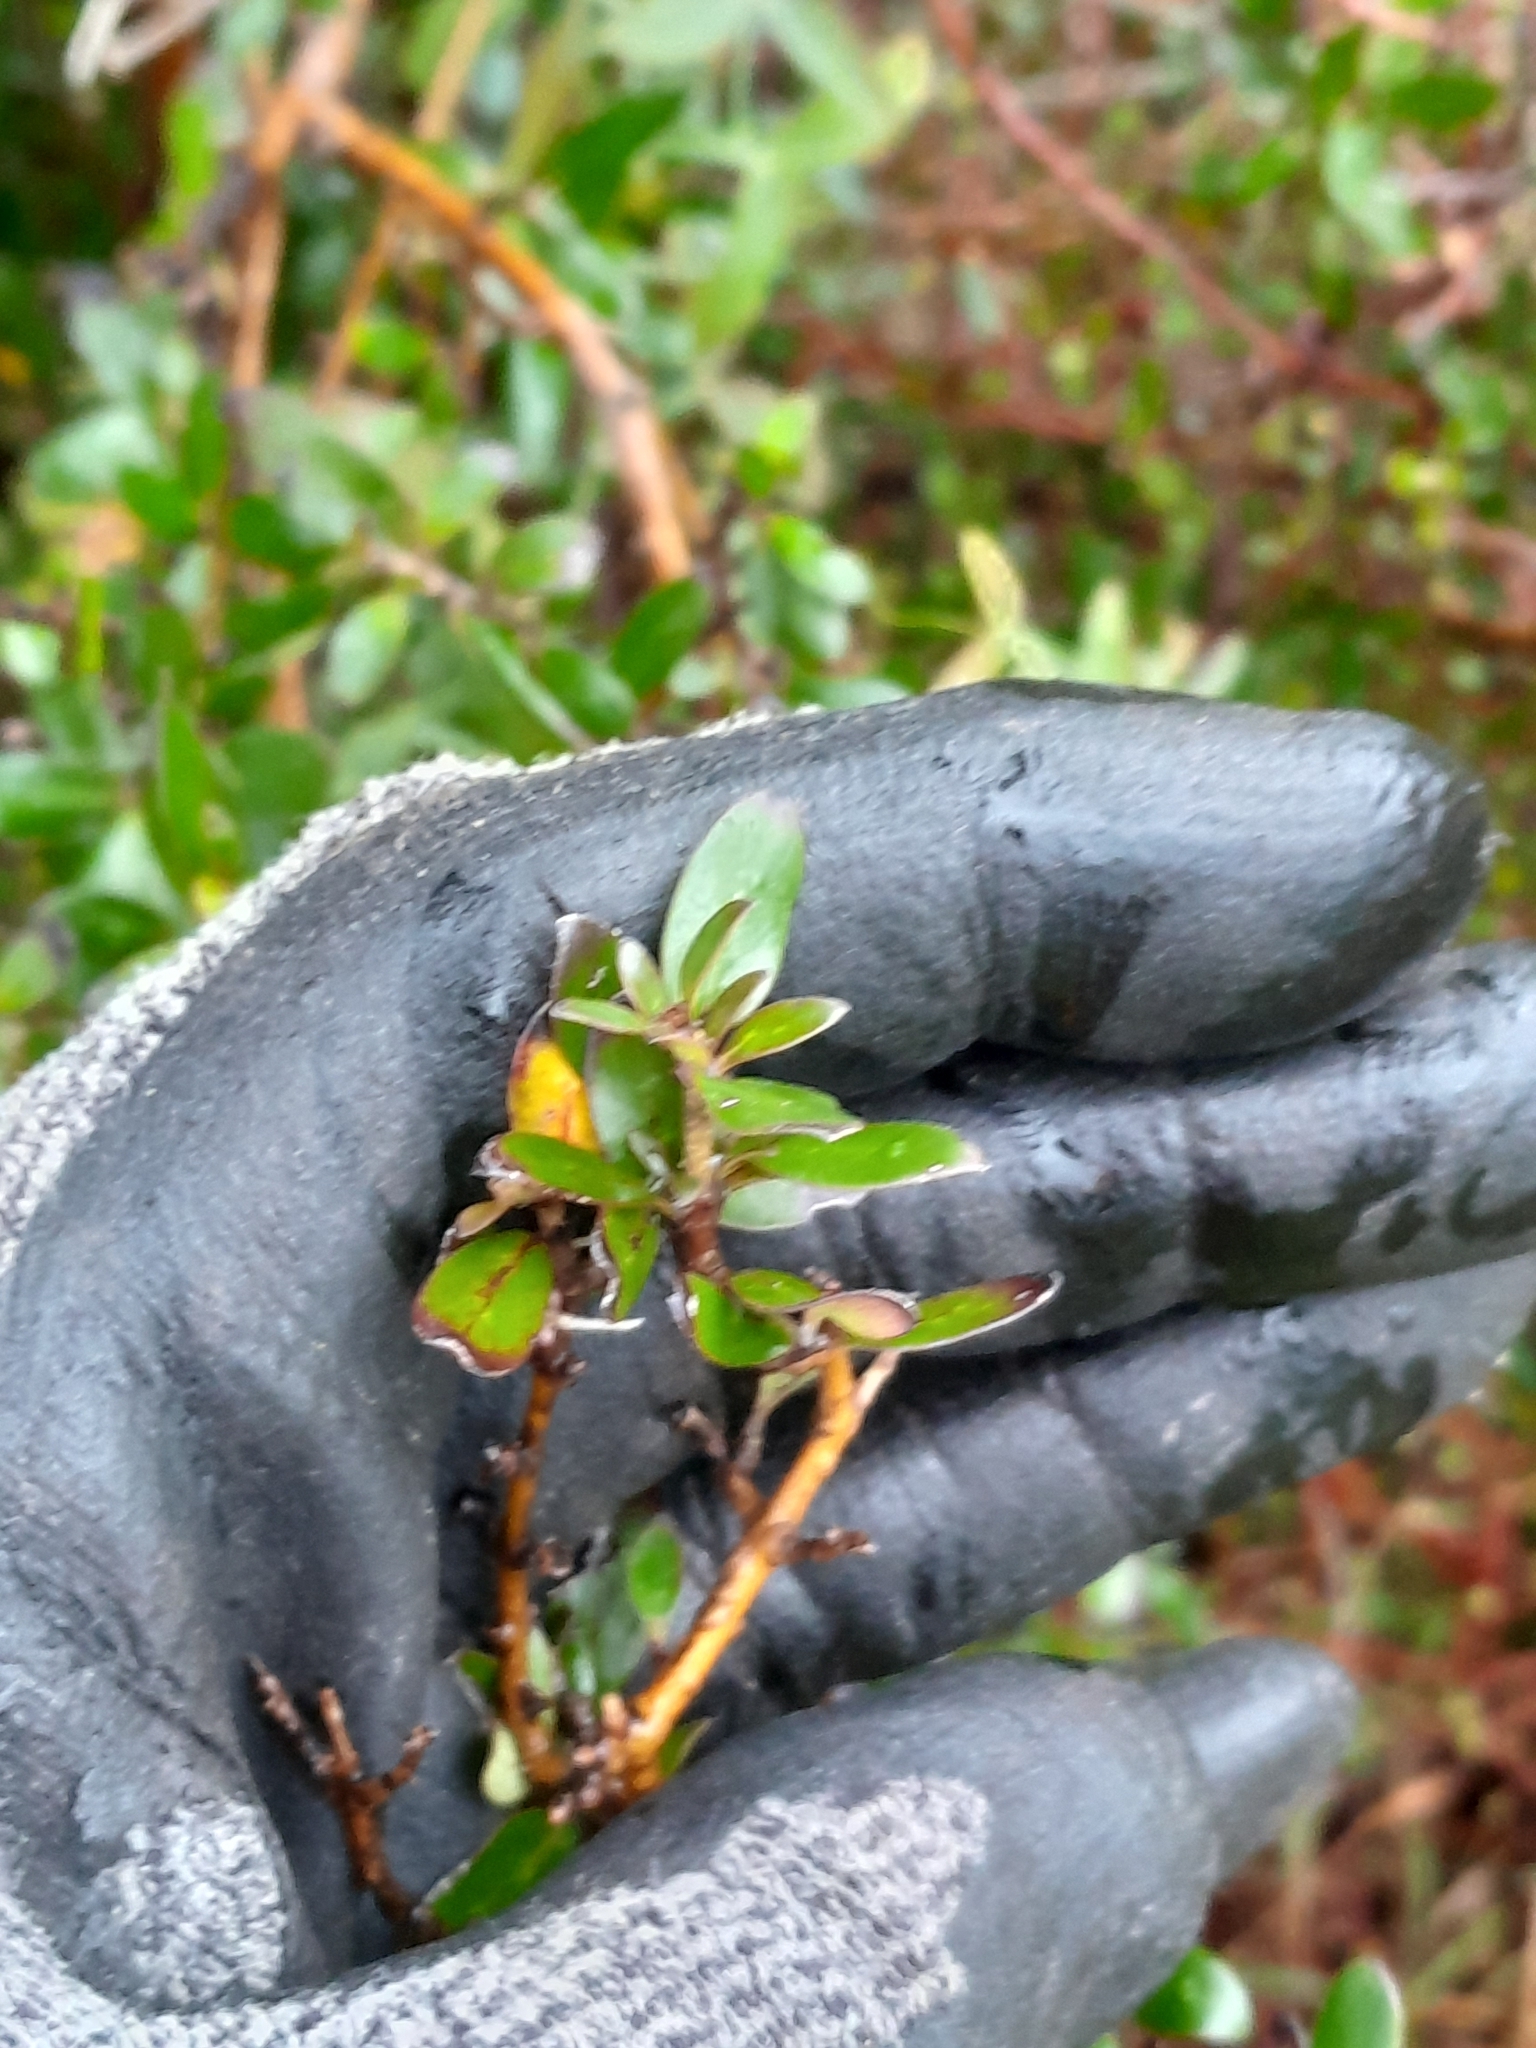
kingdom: Plantae
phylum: Tracheophyta
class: Magnoliopsida
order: Gentianales
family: Rubiaceae
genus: Coprosma
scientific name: Coprosma cunninghamii
